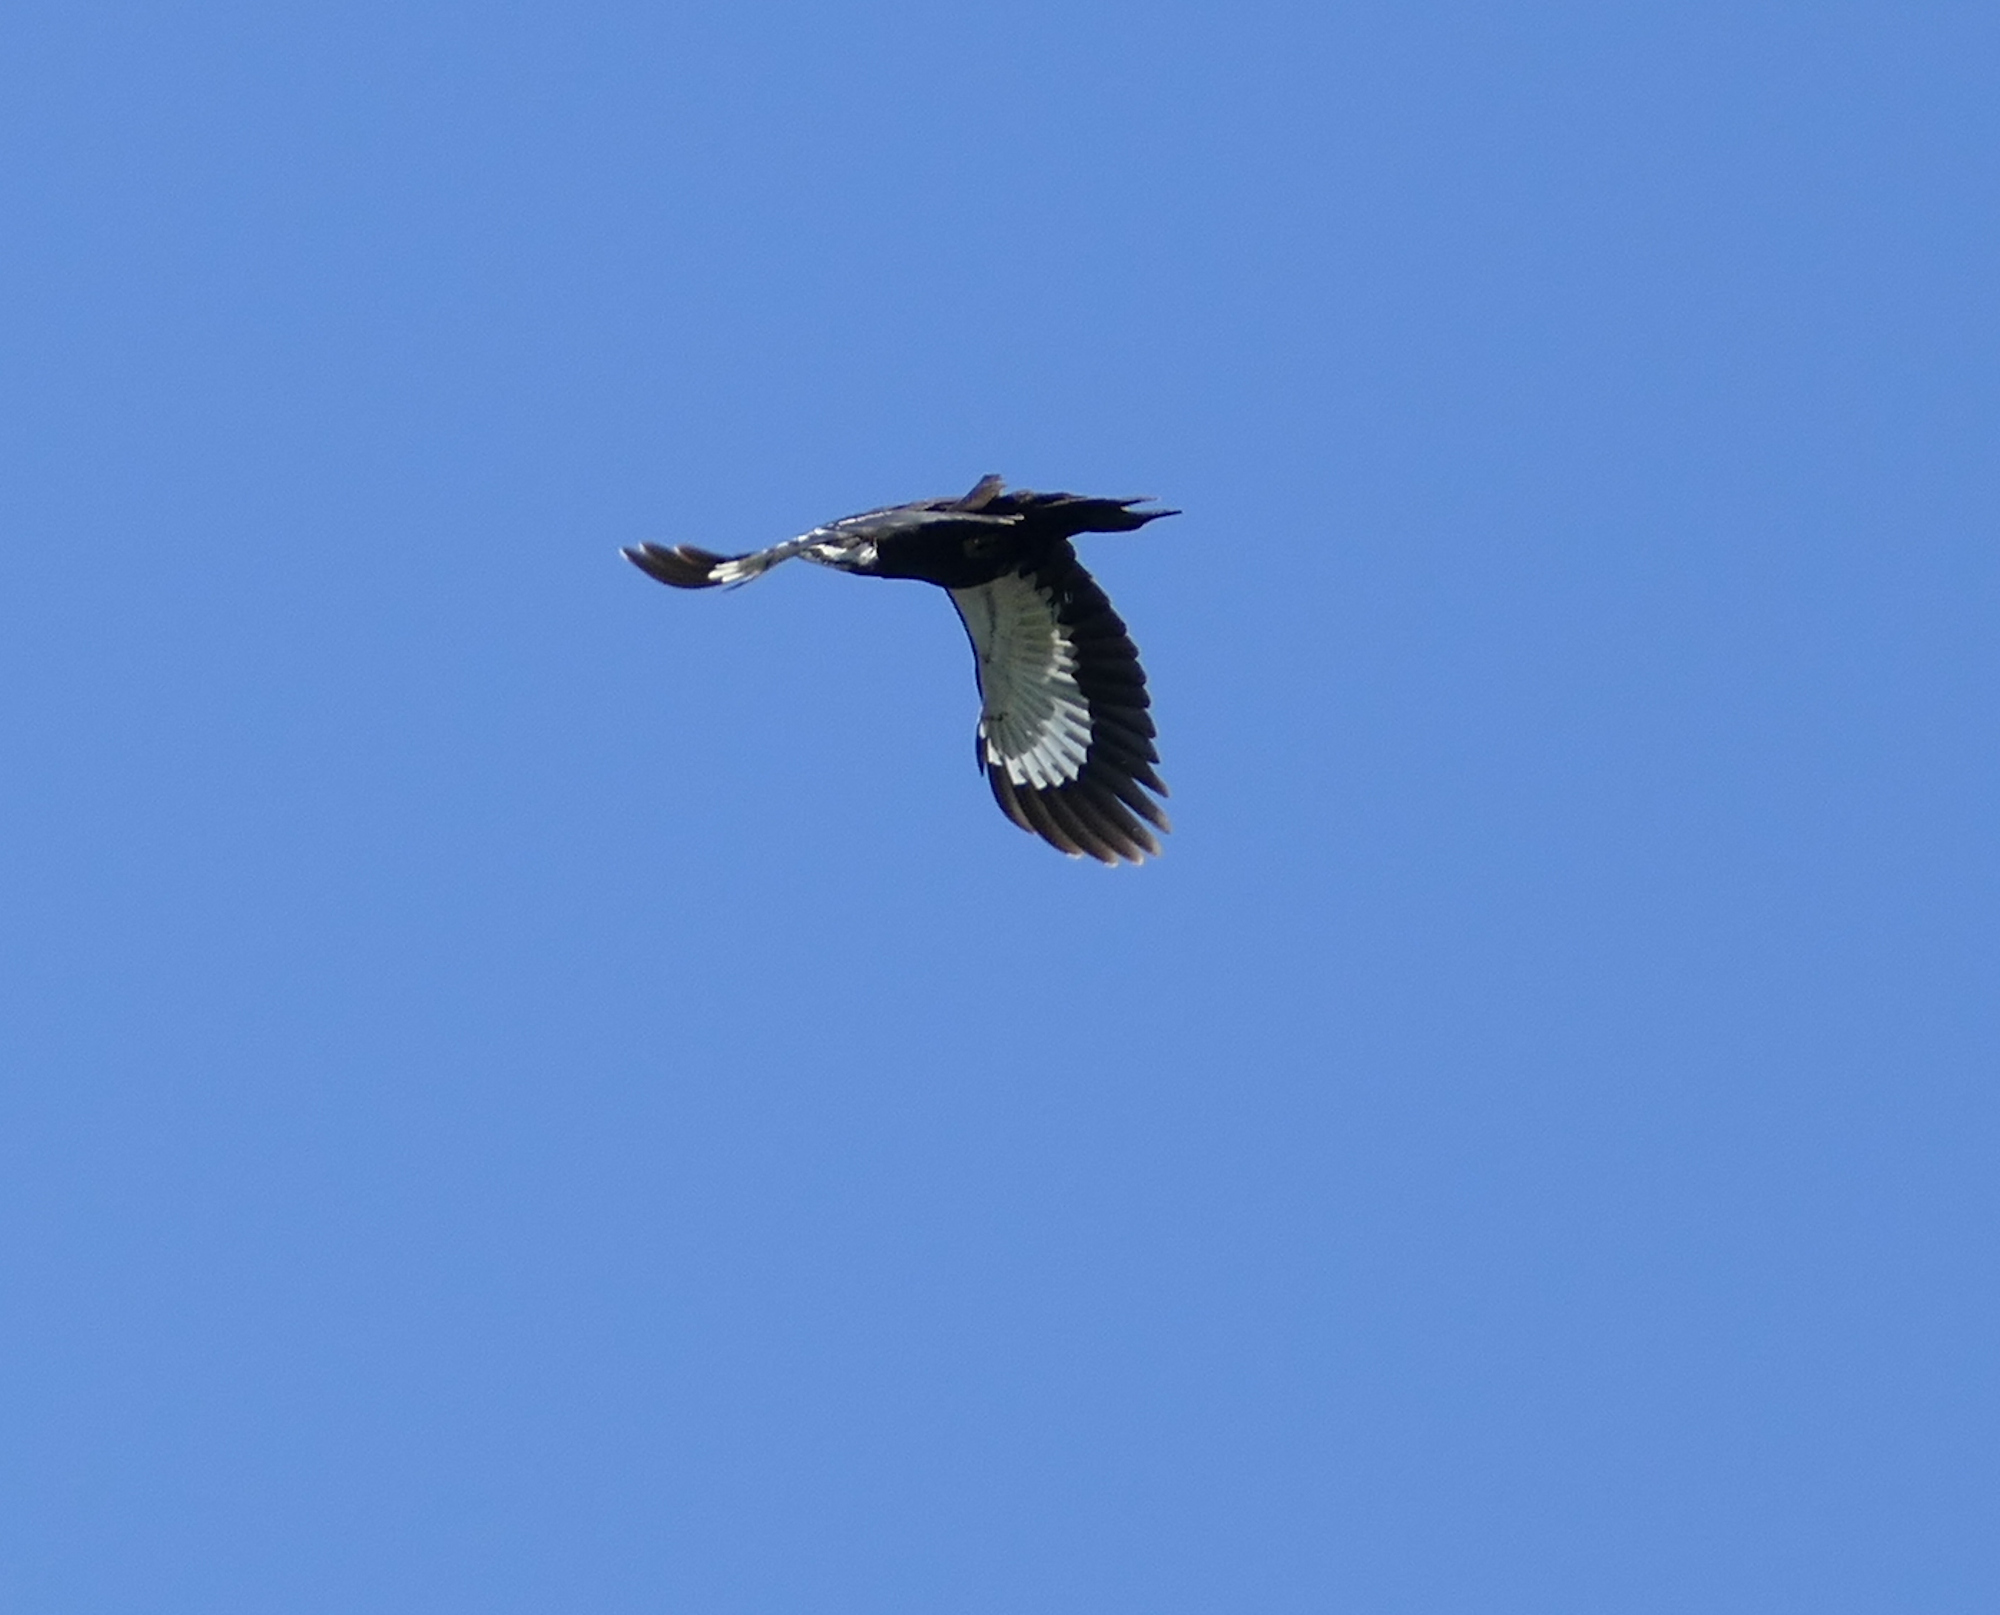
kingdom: Animalia
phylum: Chordata
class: Aves
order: Piciformes
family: Picidae
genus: Dryocopus
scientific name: Dryocopus pileatus
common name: Pileated woodpecker
